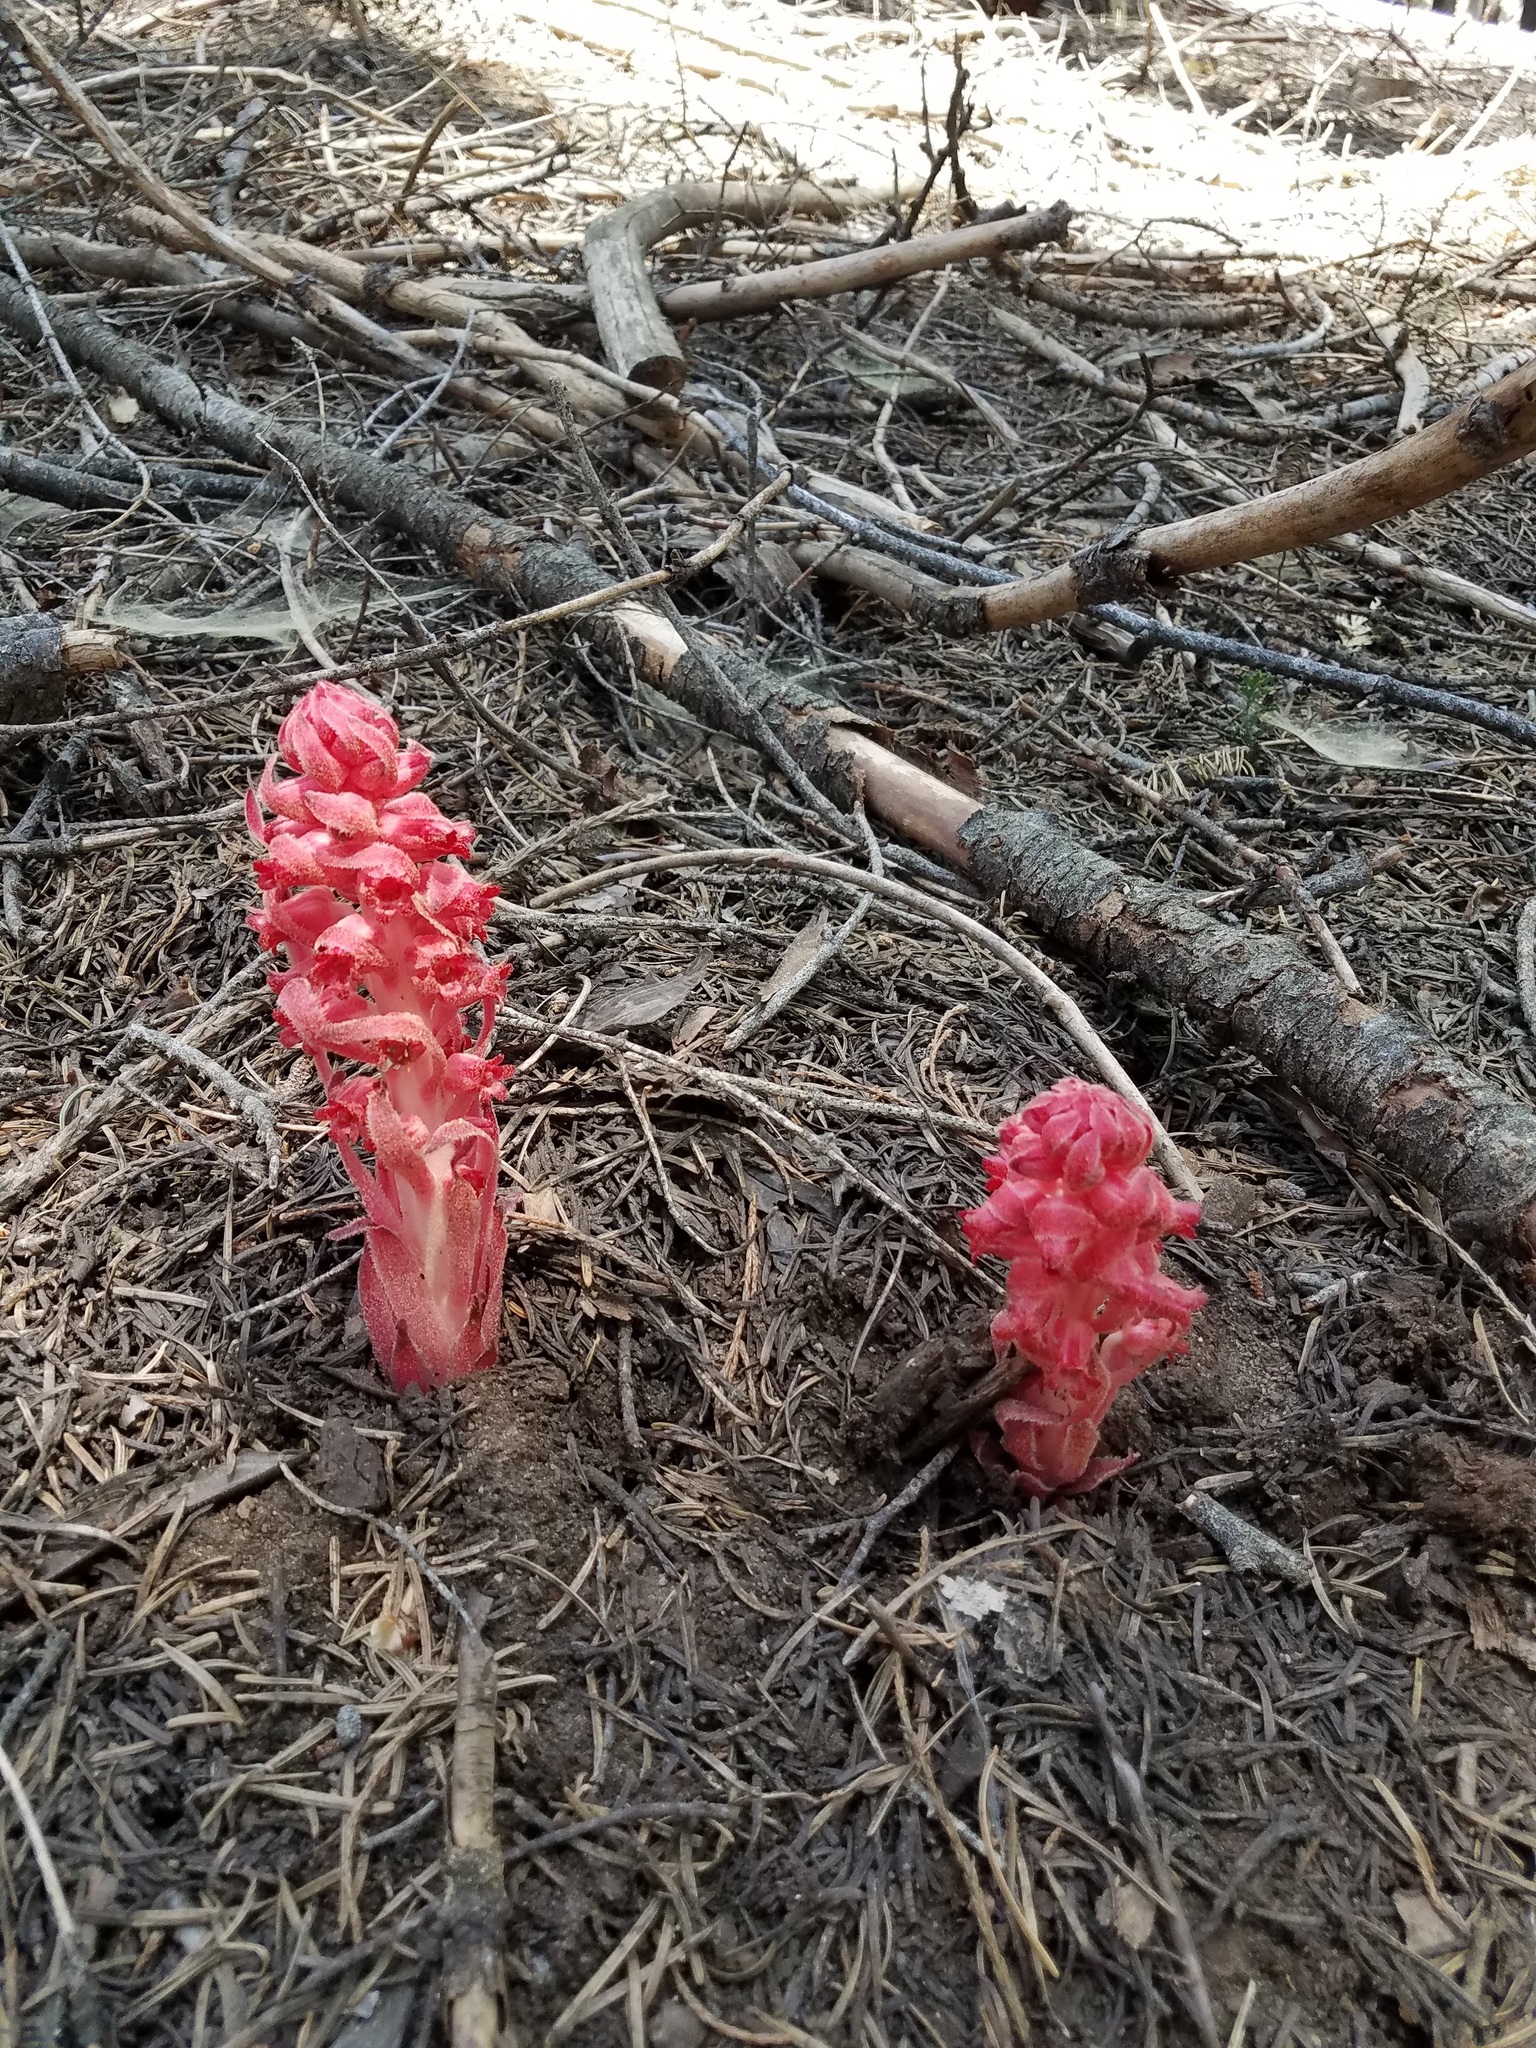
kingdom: Plantae
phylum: Tracheophyta
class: Magnoliopsida
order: Ericales
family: Ericaceae
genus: Sarcodes
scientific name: Sarcodes sanguinea
